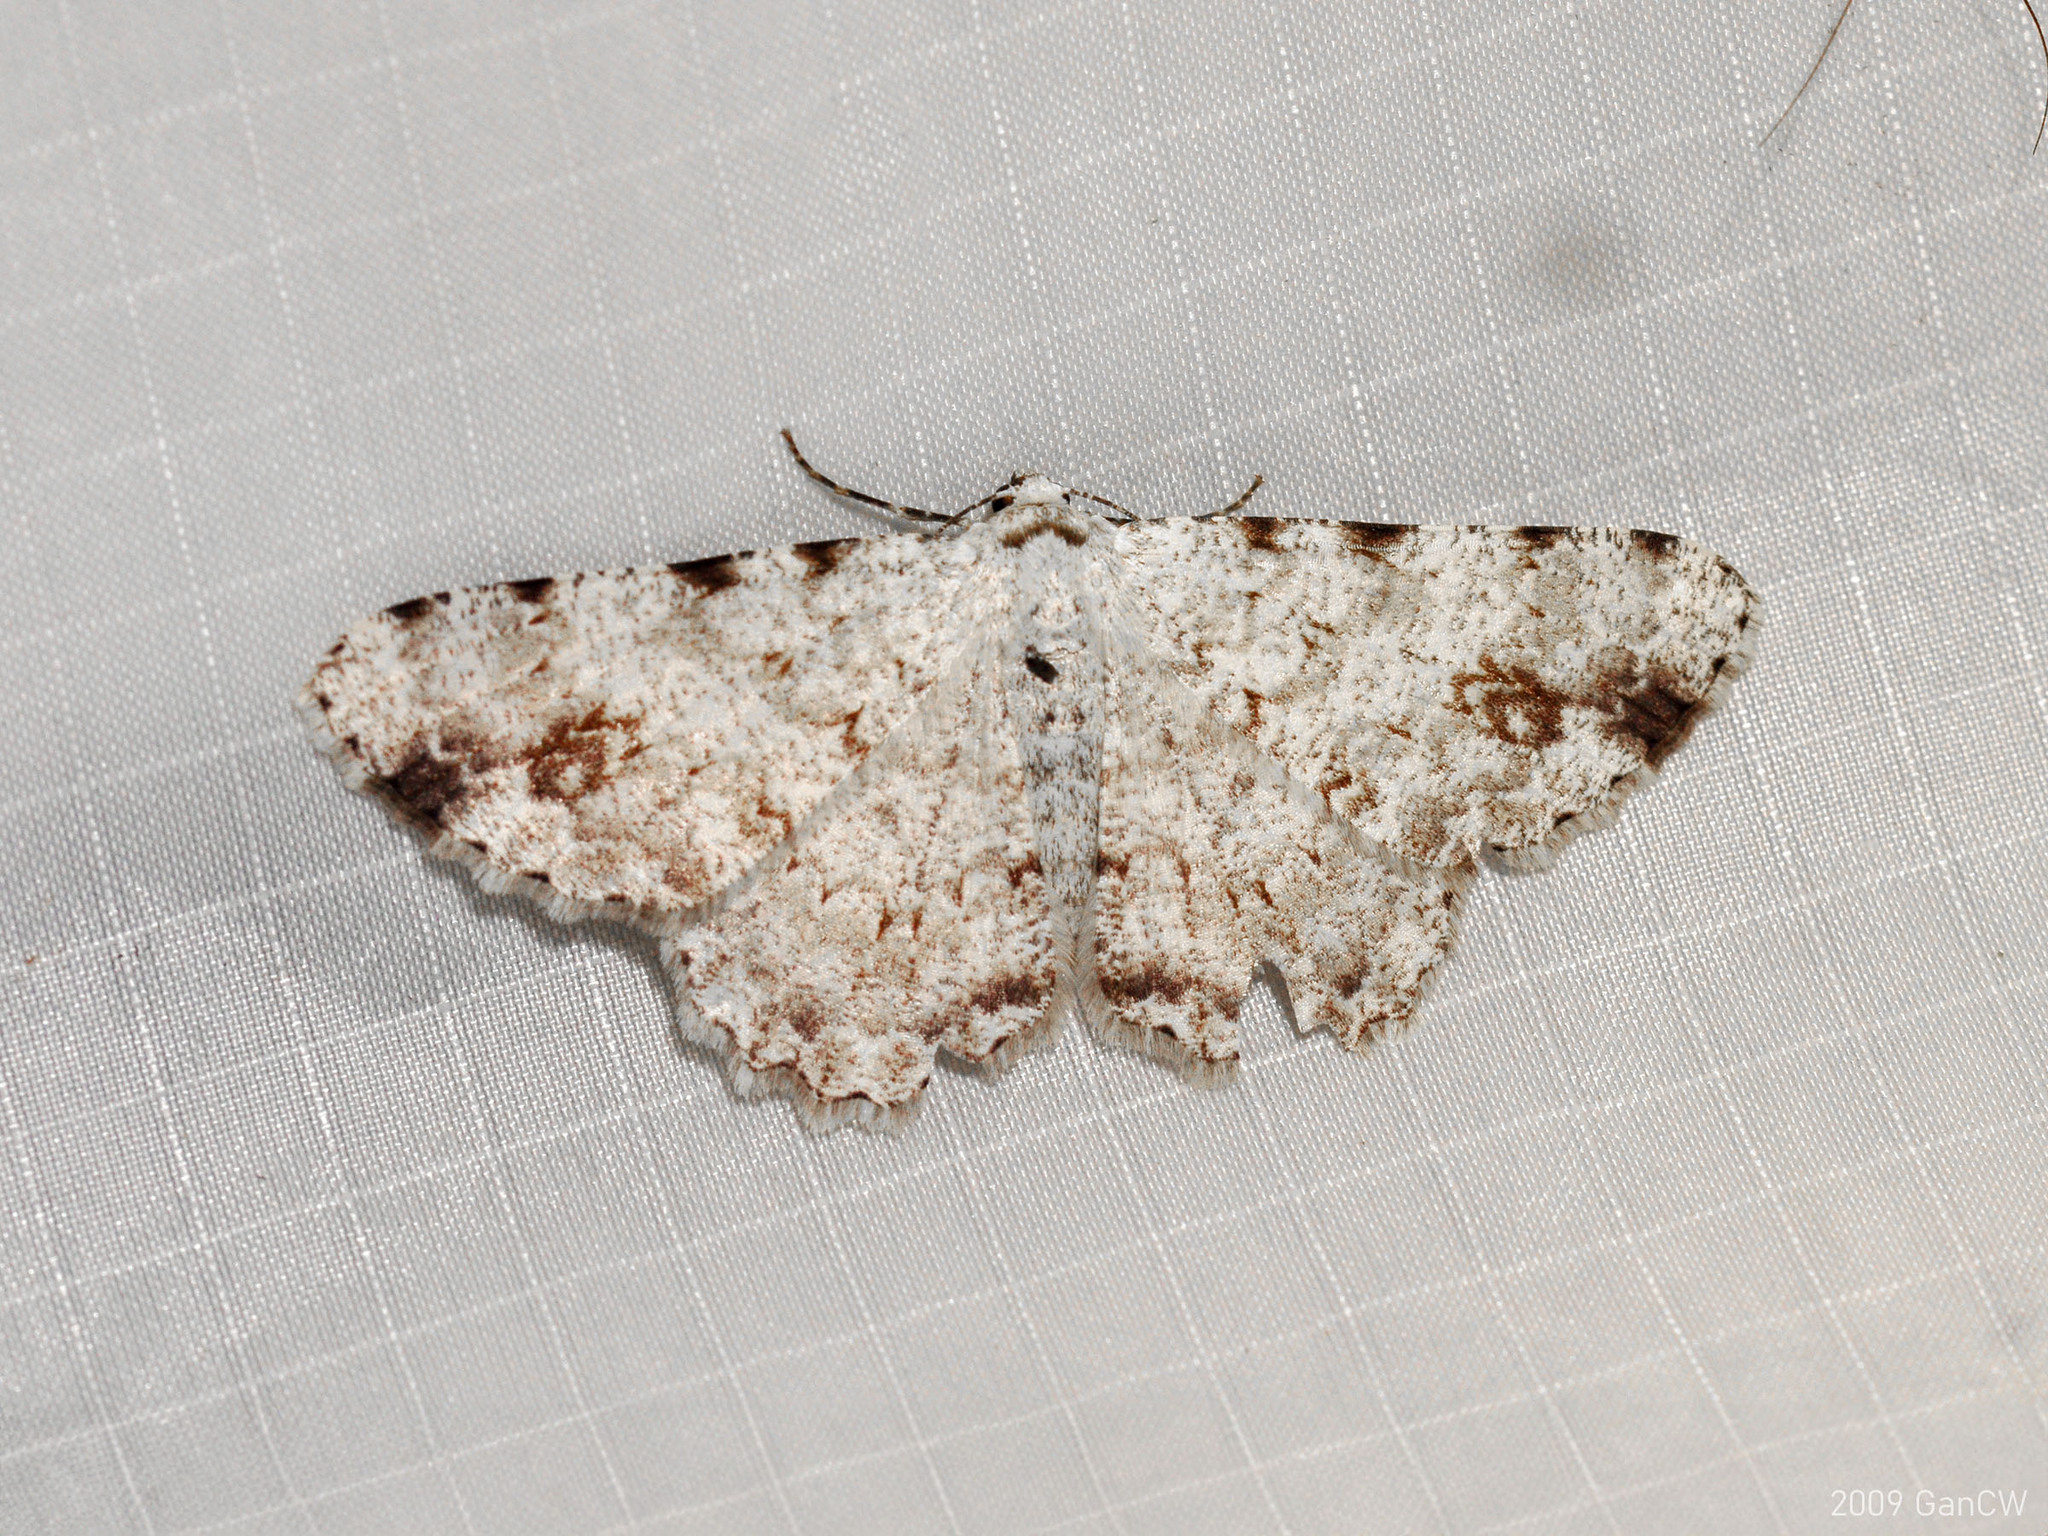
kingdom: Animalia
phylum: Arthropoda
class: Insecta
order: Lepidoptera
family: Geometridae
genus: Lassaba
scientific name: Lassaba acribomena
